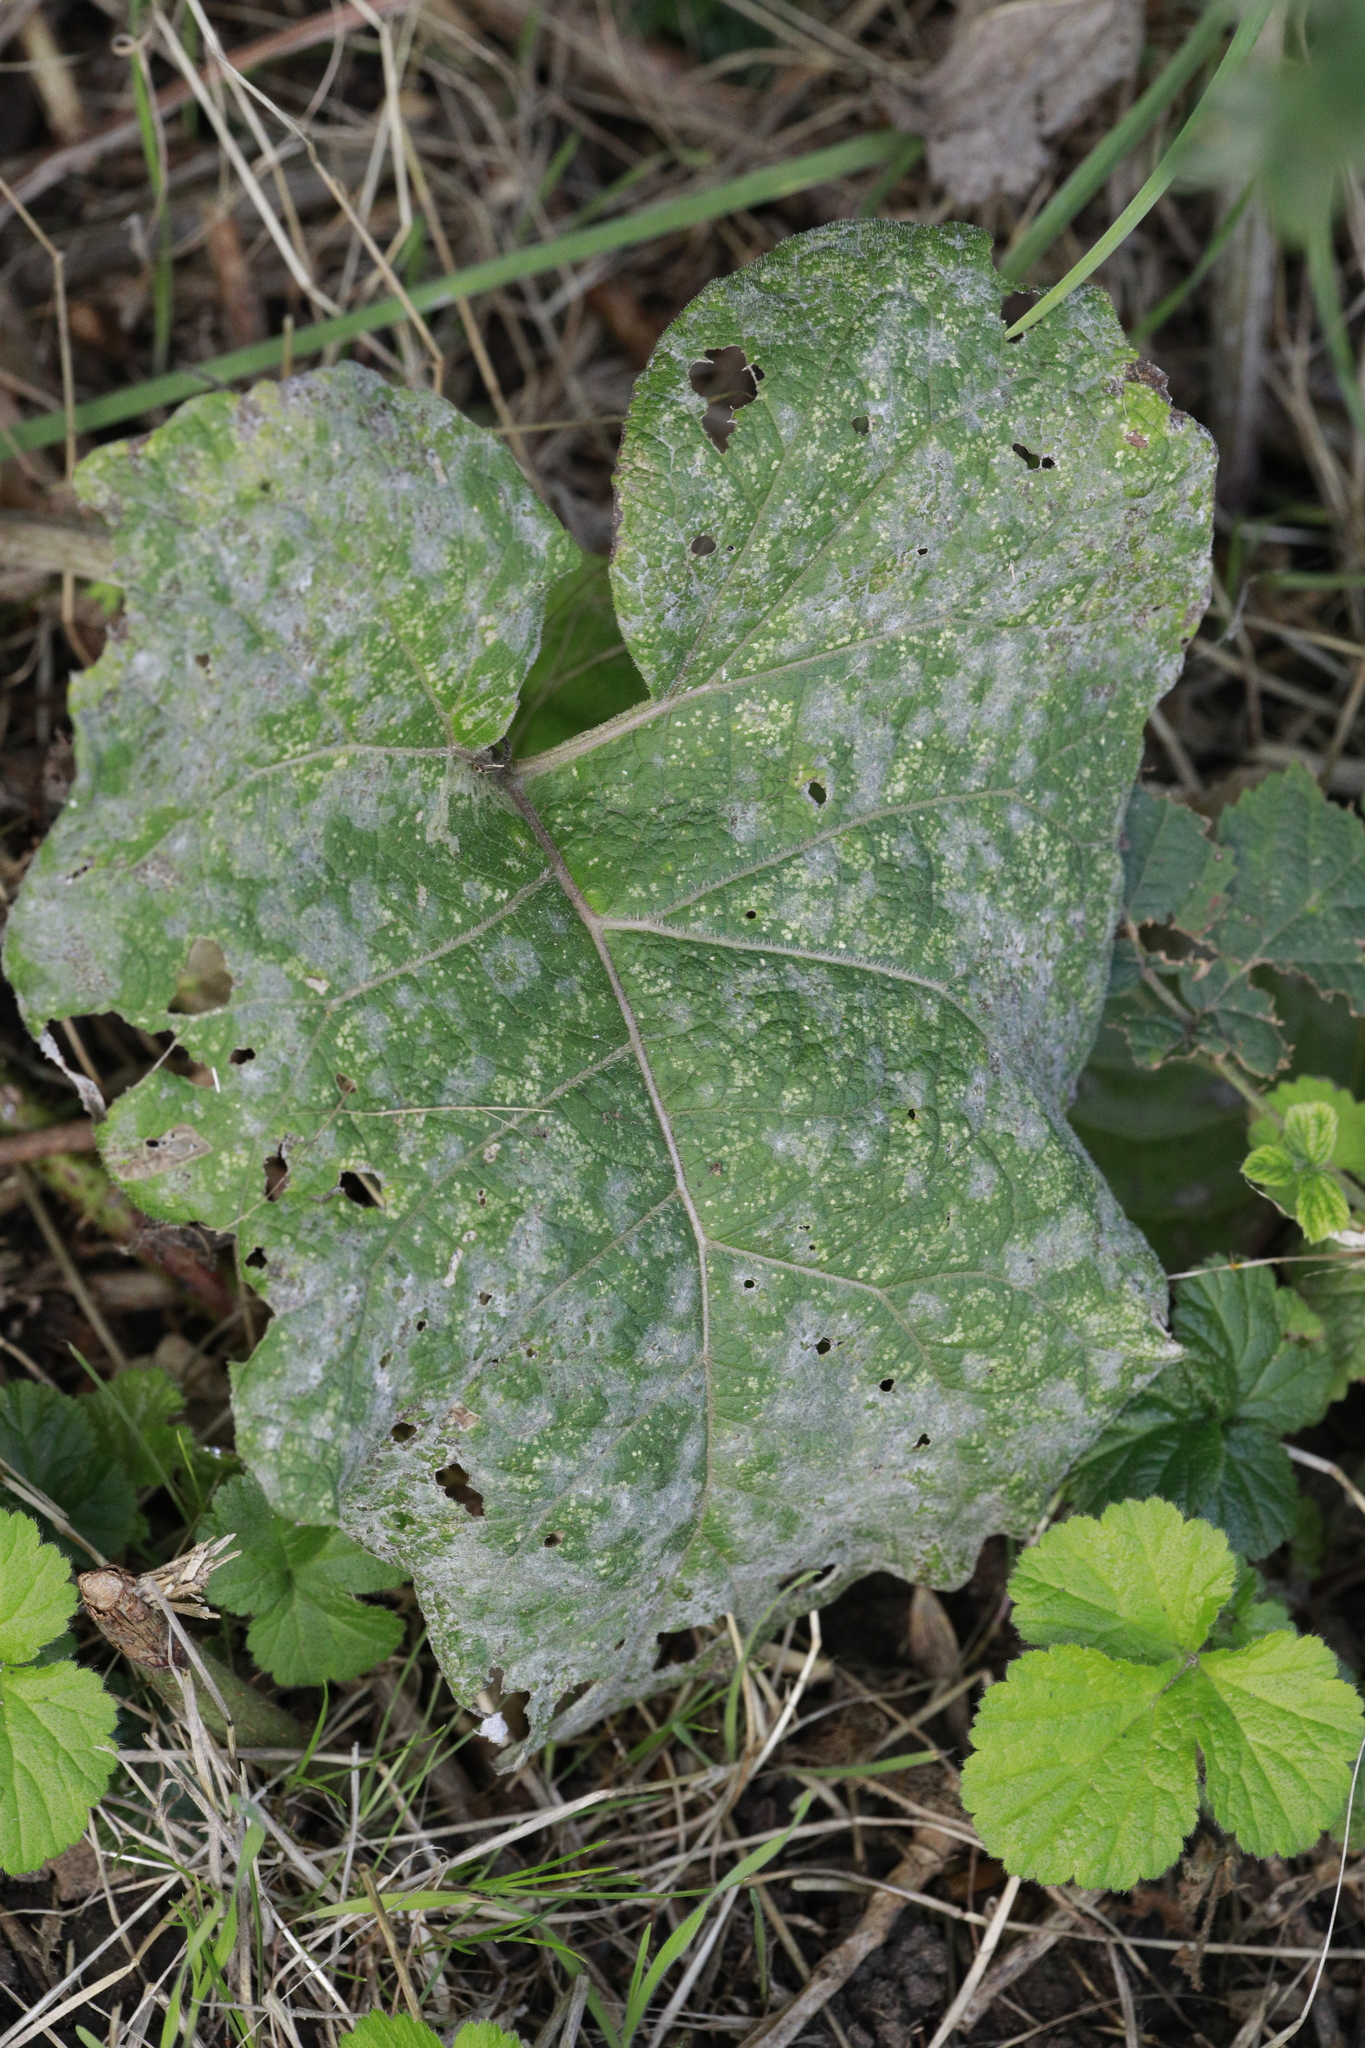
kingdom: Fungi
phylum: Ascomycota
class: Leotiomycetes
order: Helotiales
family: Erysiphaceae
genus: Golovinomyces
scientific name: Golovinomyces depressus
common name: Burdock mildew
